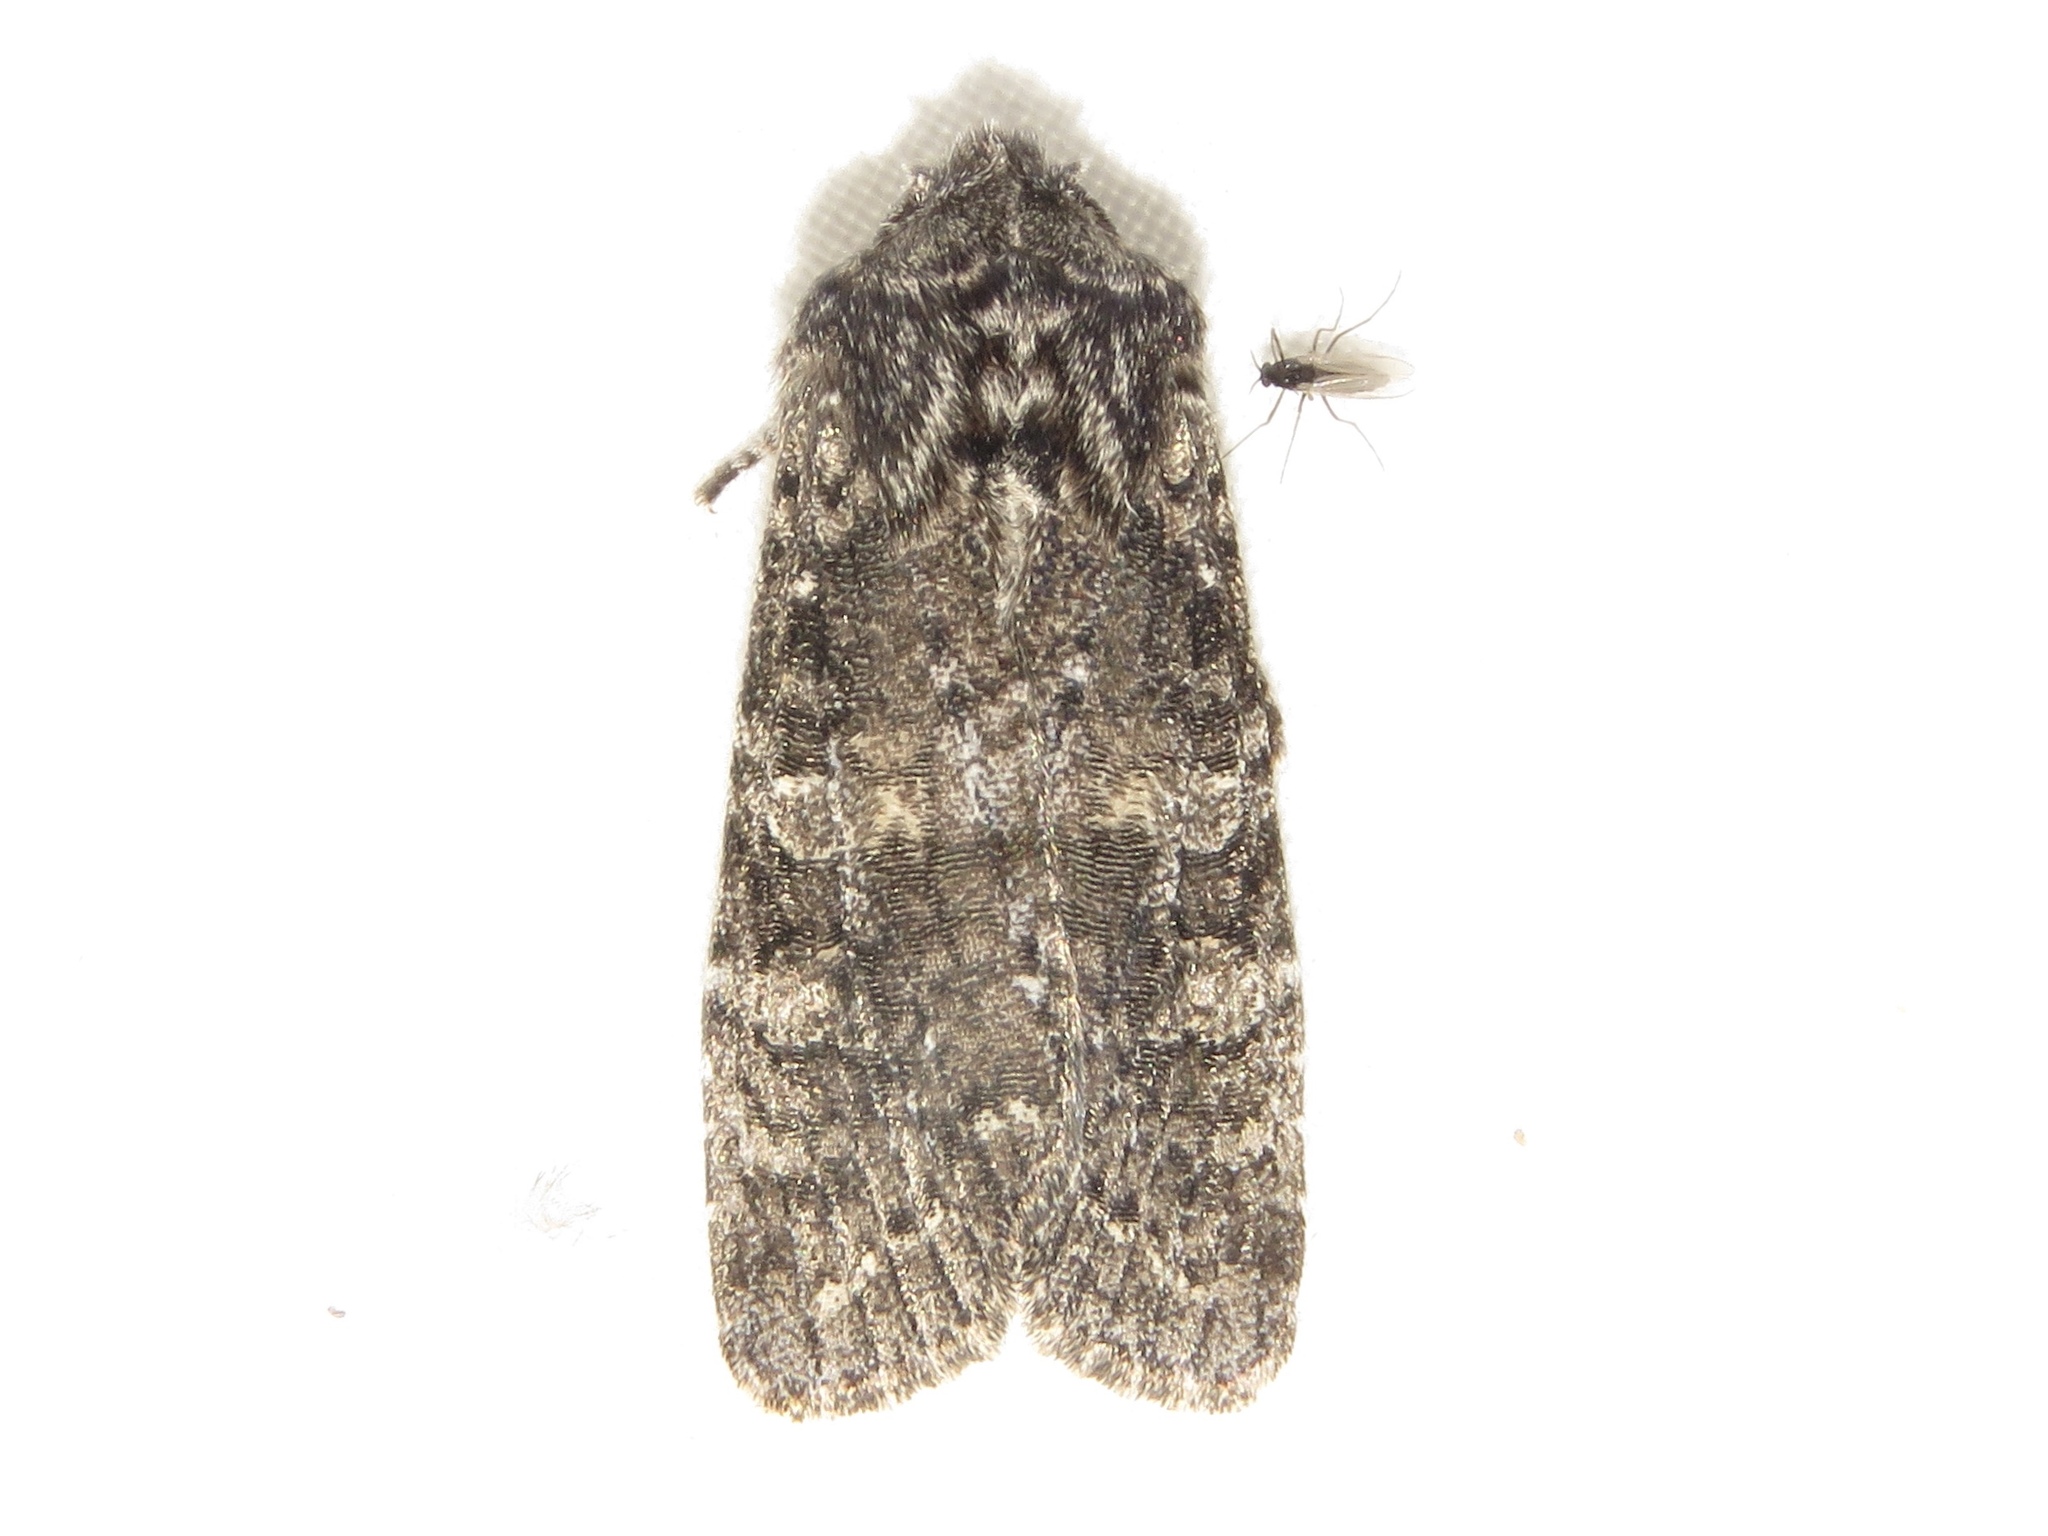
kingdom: Animalia
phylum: Arthropoda
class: Insecta
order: Lepidoptera
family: Noctuidae
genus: Egira
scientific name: Egira dolosa
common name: Lined black aspen cat.
